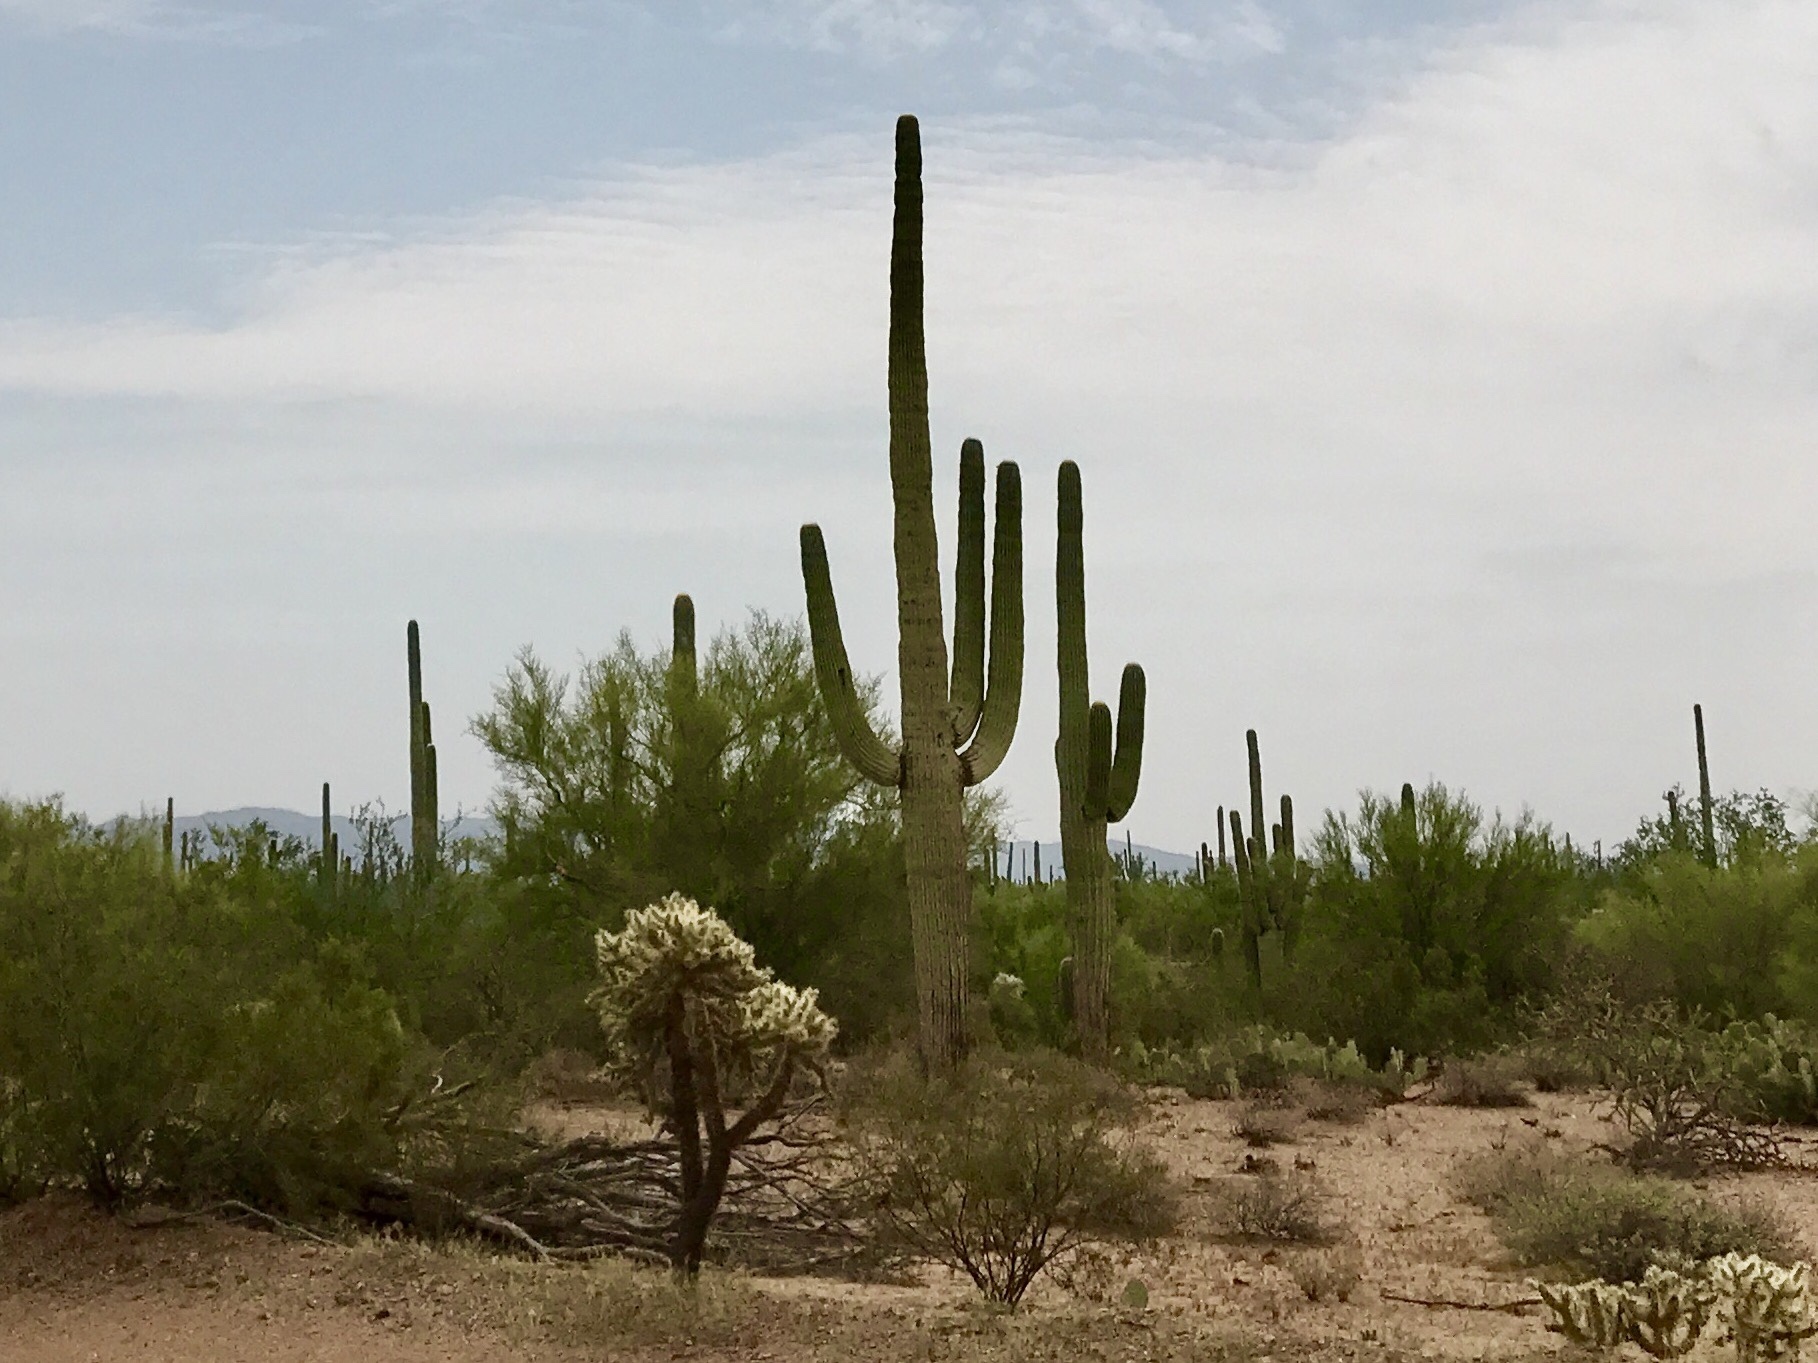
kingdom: Plantae
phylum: Tracheophyta
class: Magnoliopsida
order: Caryophyllales
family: Cactaceae
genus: Carnegiea
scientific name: Carnegiea gigantea
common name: Saguaro
